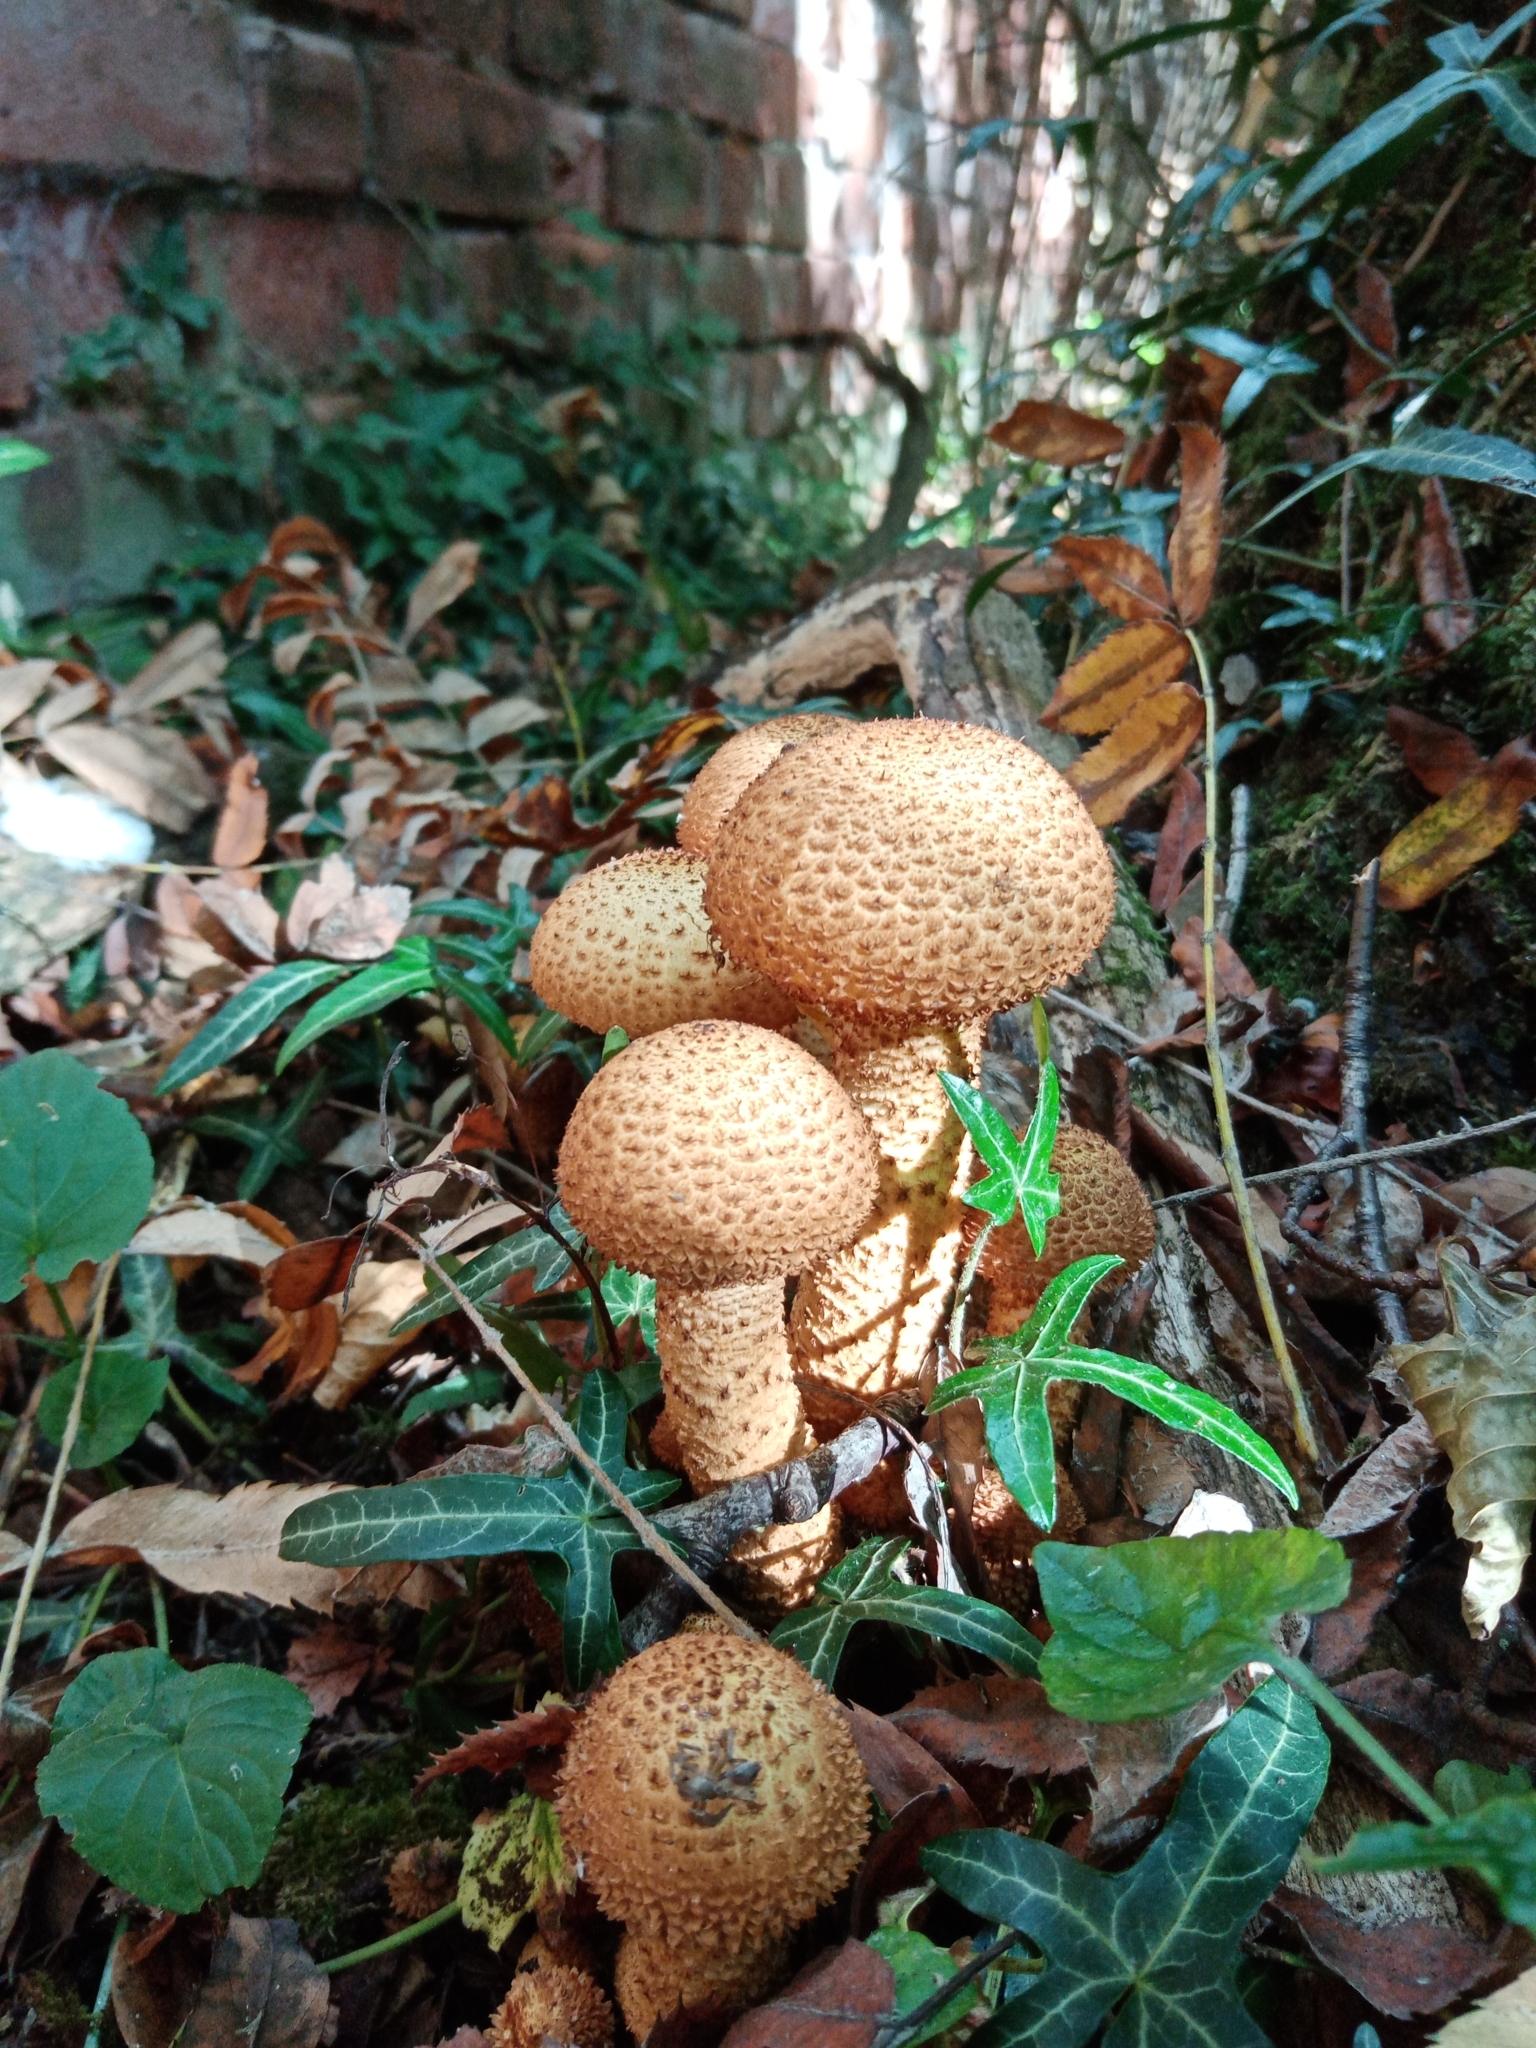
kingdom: Fungi
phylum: Basidiomycota
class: Agaricomycetes
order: Agaricales
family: Strophariaceae
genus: Pholiota
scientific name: Pholiota squarrosa
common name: Shaggy pholiota
